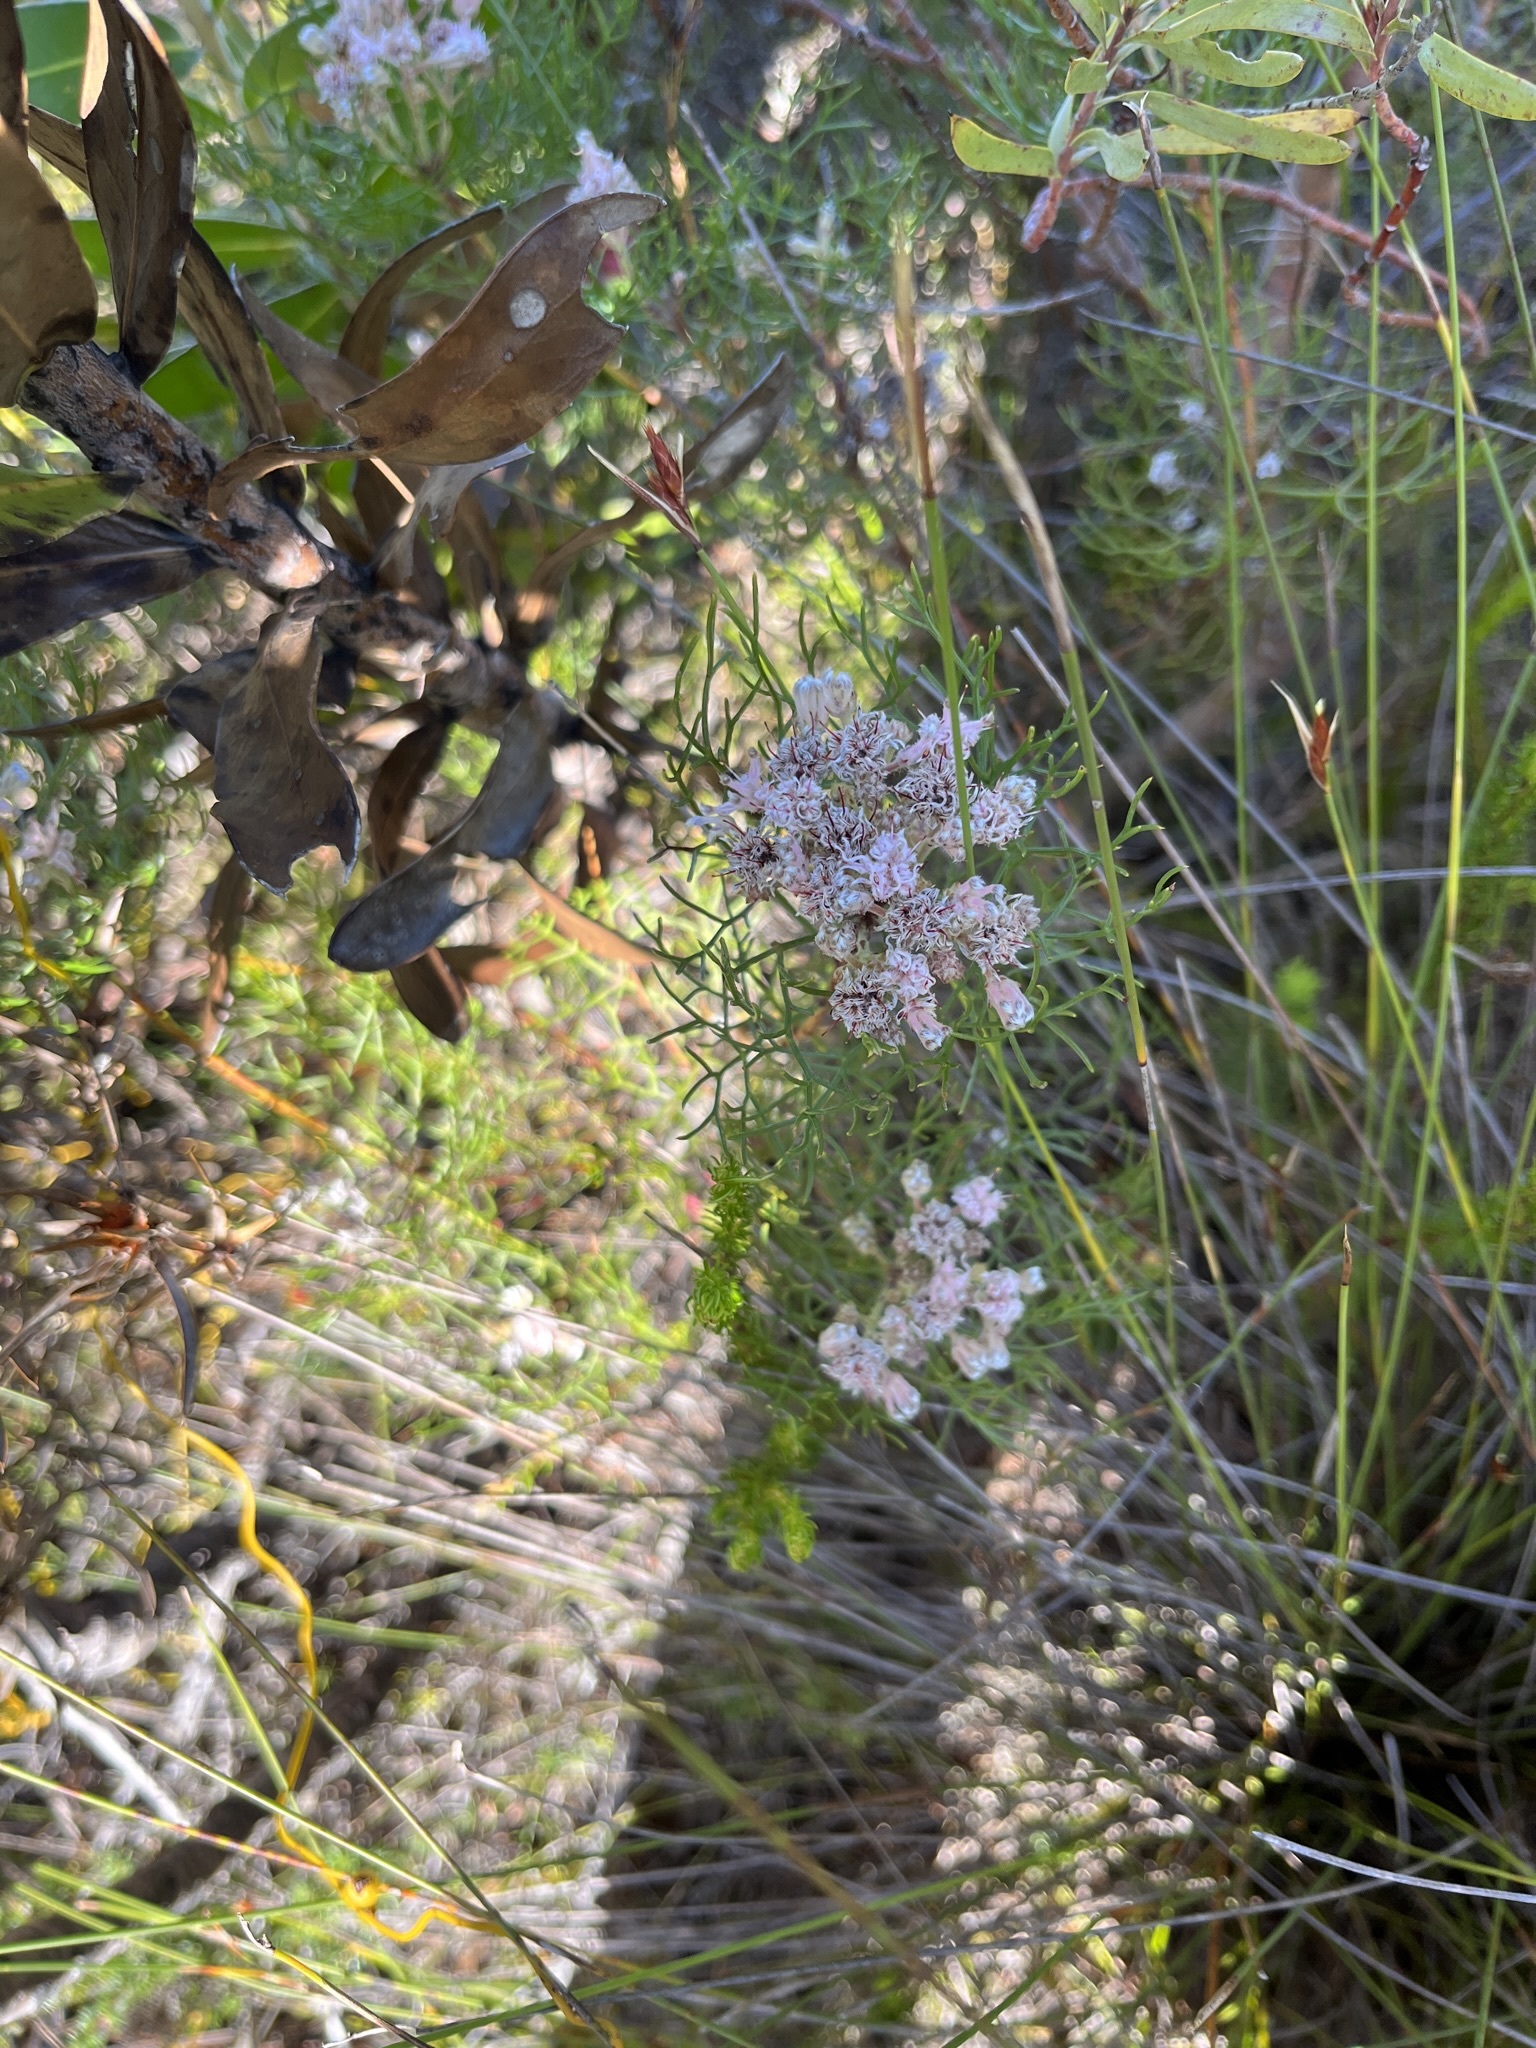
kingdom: Plantae
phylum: Tracheophyta
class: Magnoliopsida
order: Proteales
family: Proteaceae
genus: Serruria
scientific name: Serruria fasciflora
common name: Common pin spiderhead
